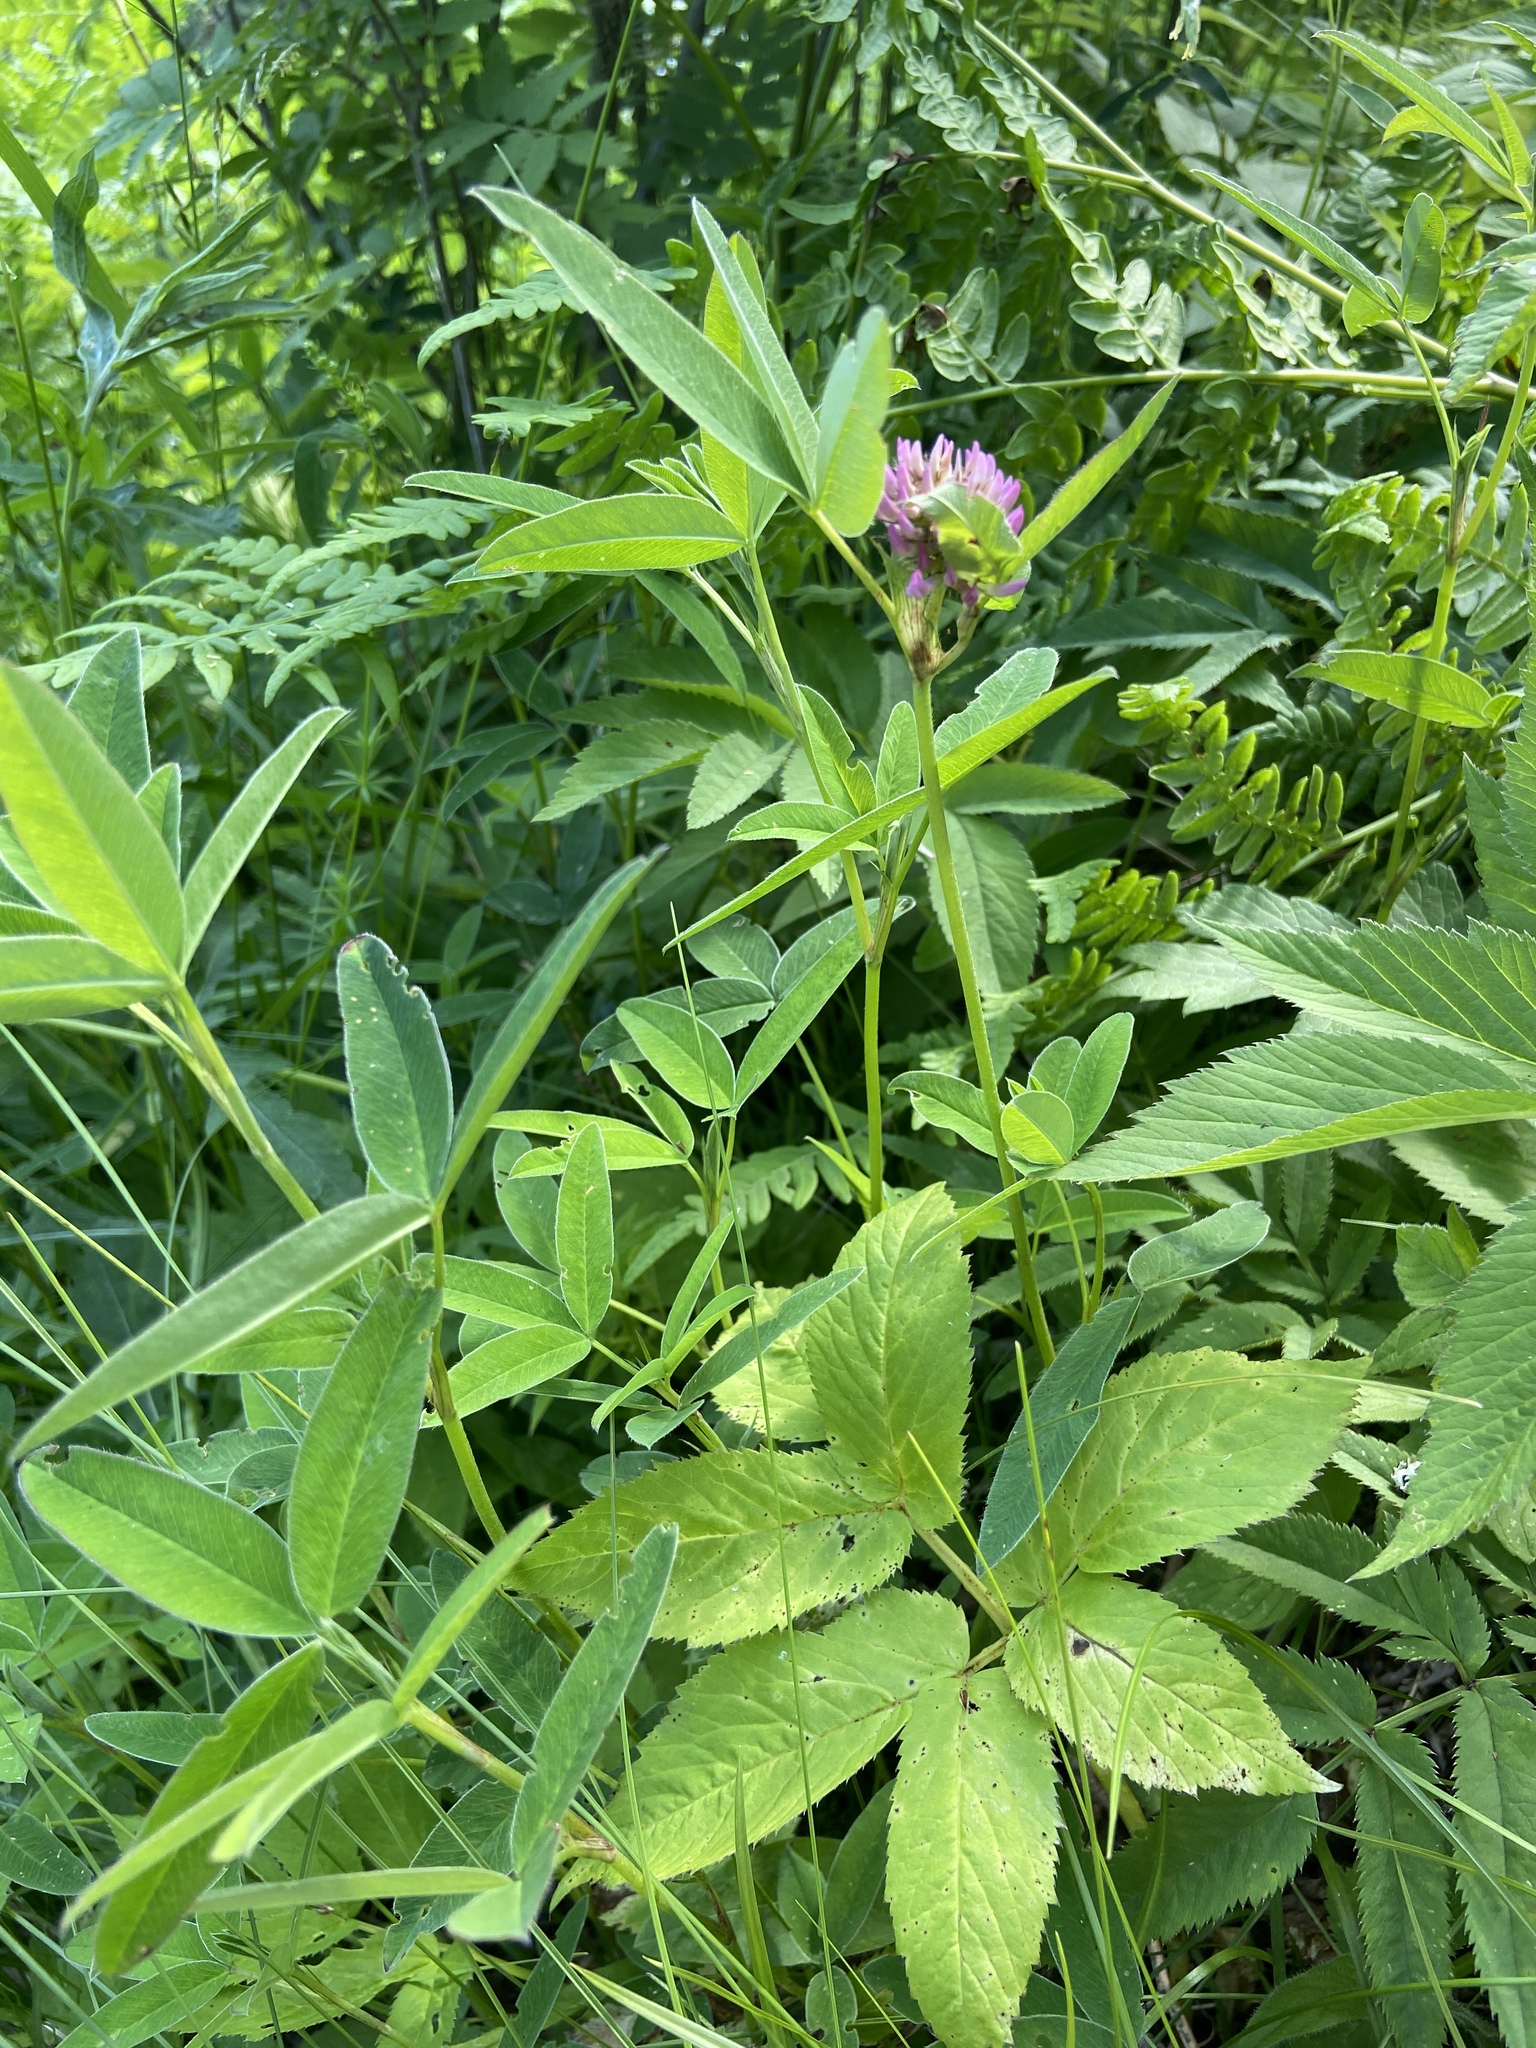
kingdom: Plantae
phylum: Tracheophyta
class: Magnoliopsida
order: Fabales
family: Fabaceae
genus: Trifolium
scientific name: Trifolium medium
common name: Zigzag clover
